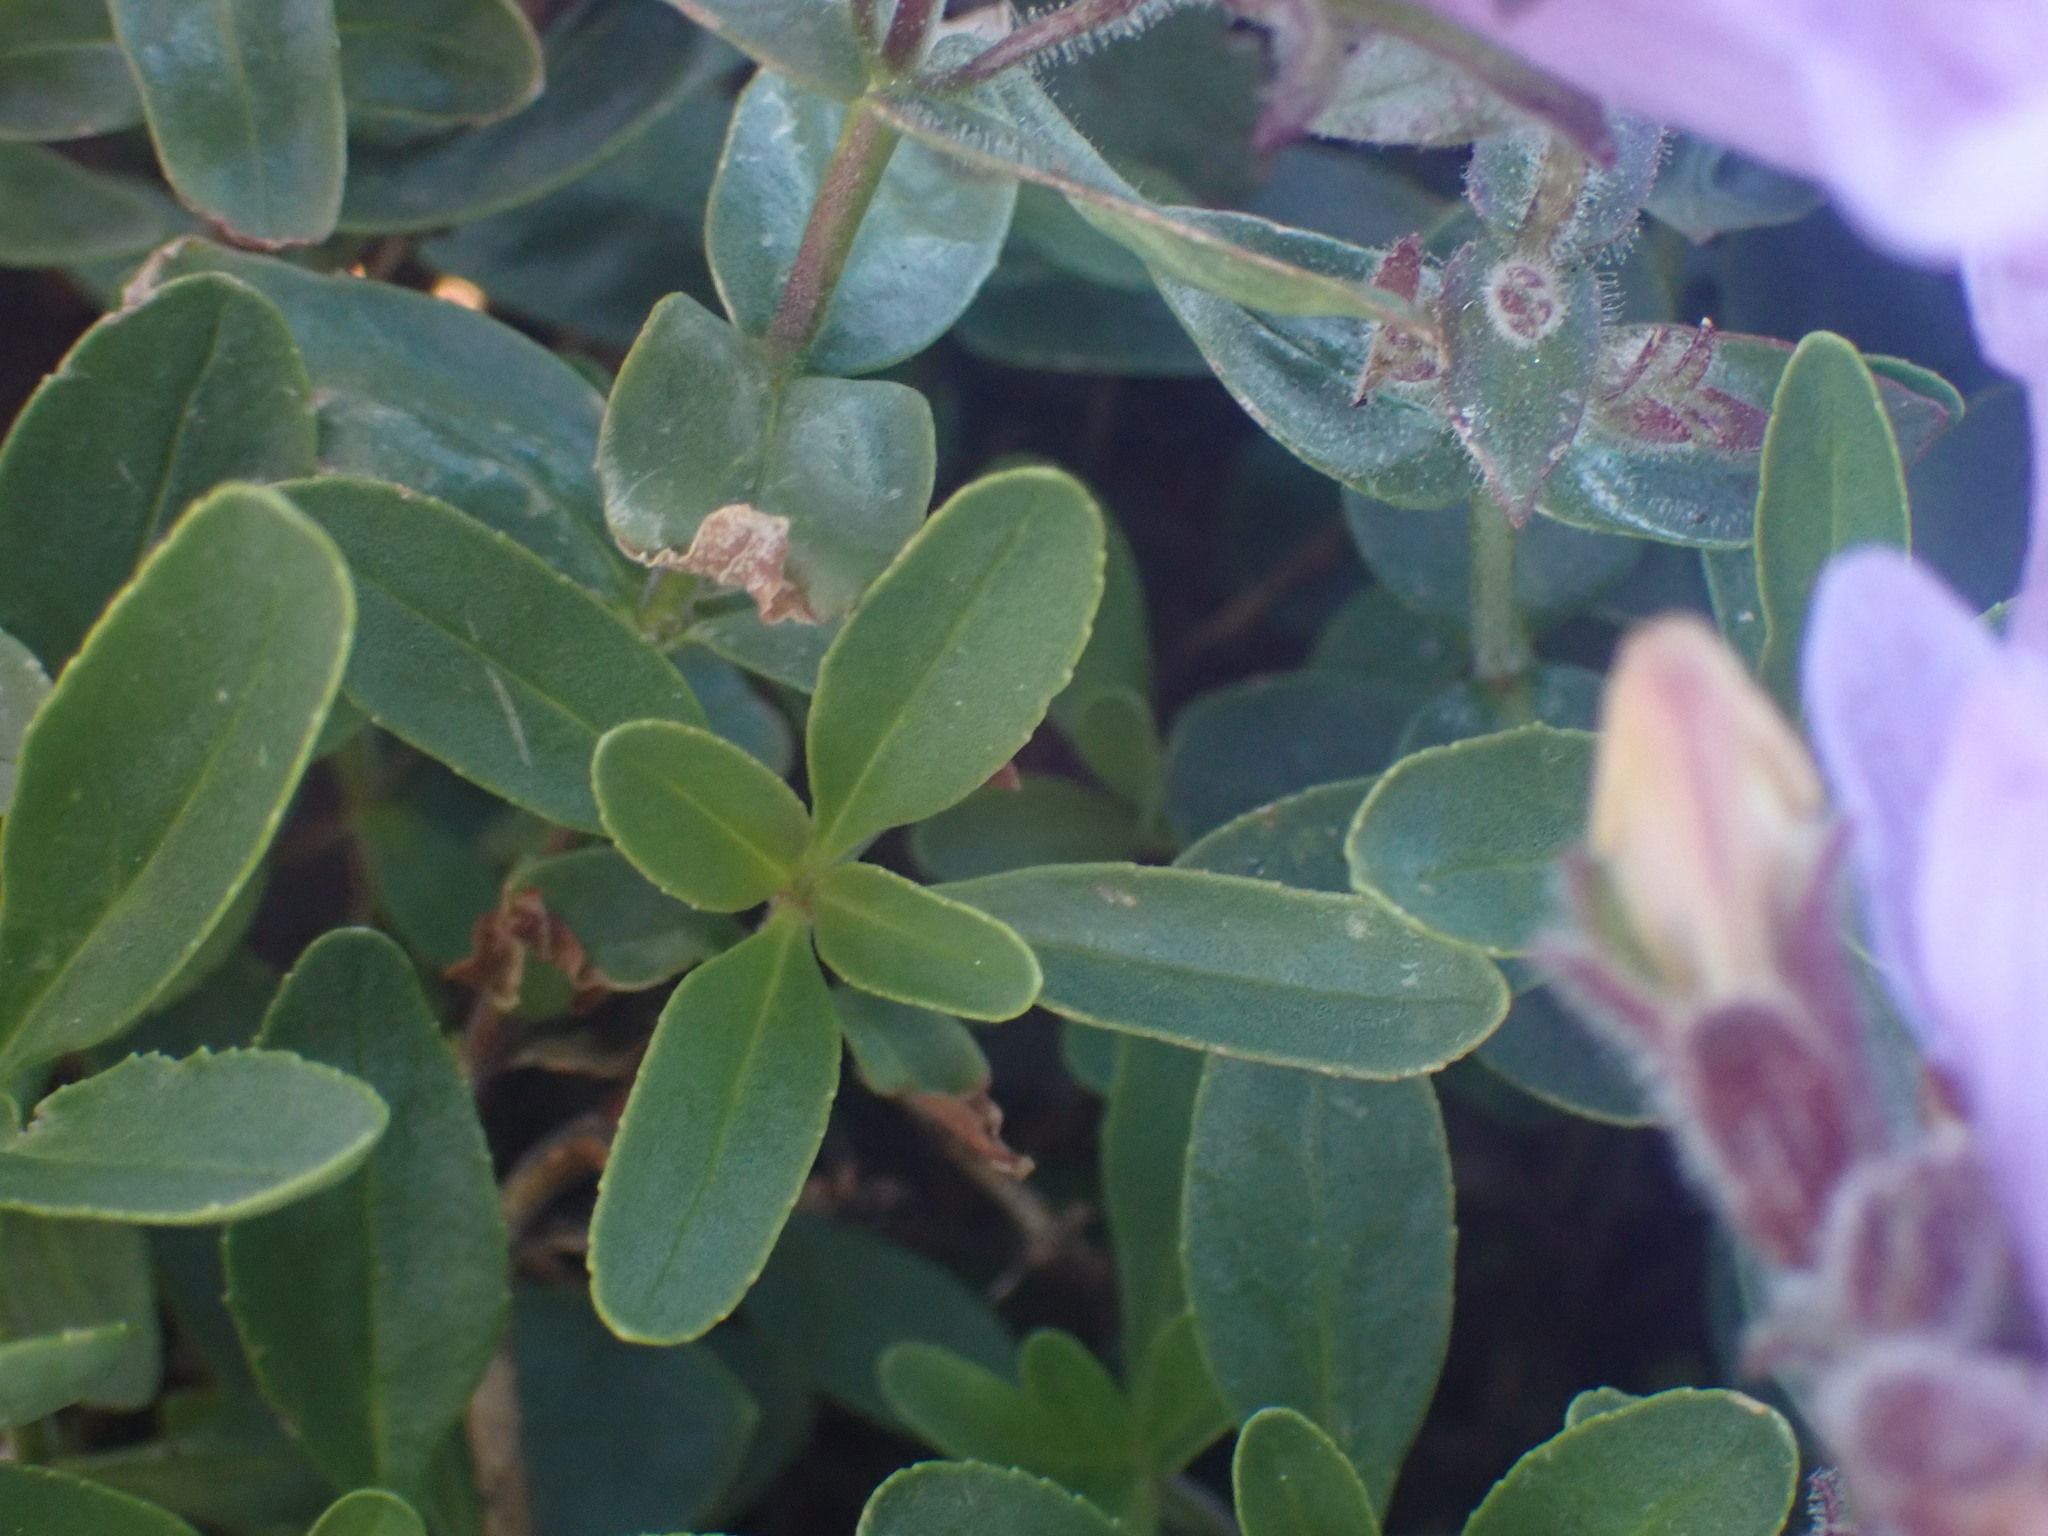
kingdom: Plantae
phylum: Tracheophyta
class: Magnoliopsida
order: Lamiales
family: Plantaginaceae
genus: Penstemon
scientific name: Penstemon ellipticus
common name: Alpine beardtongue
